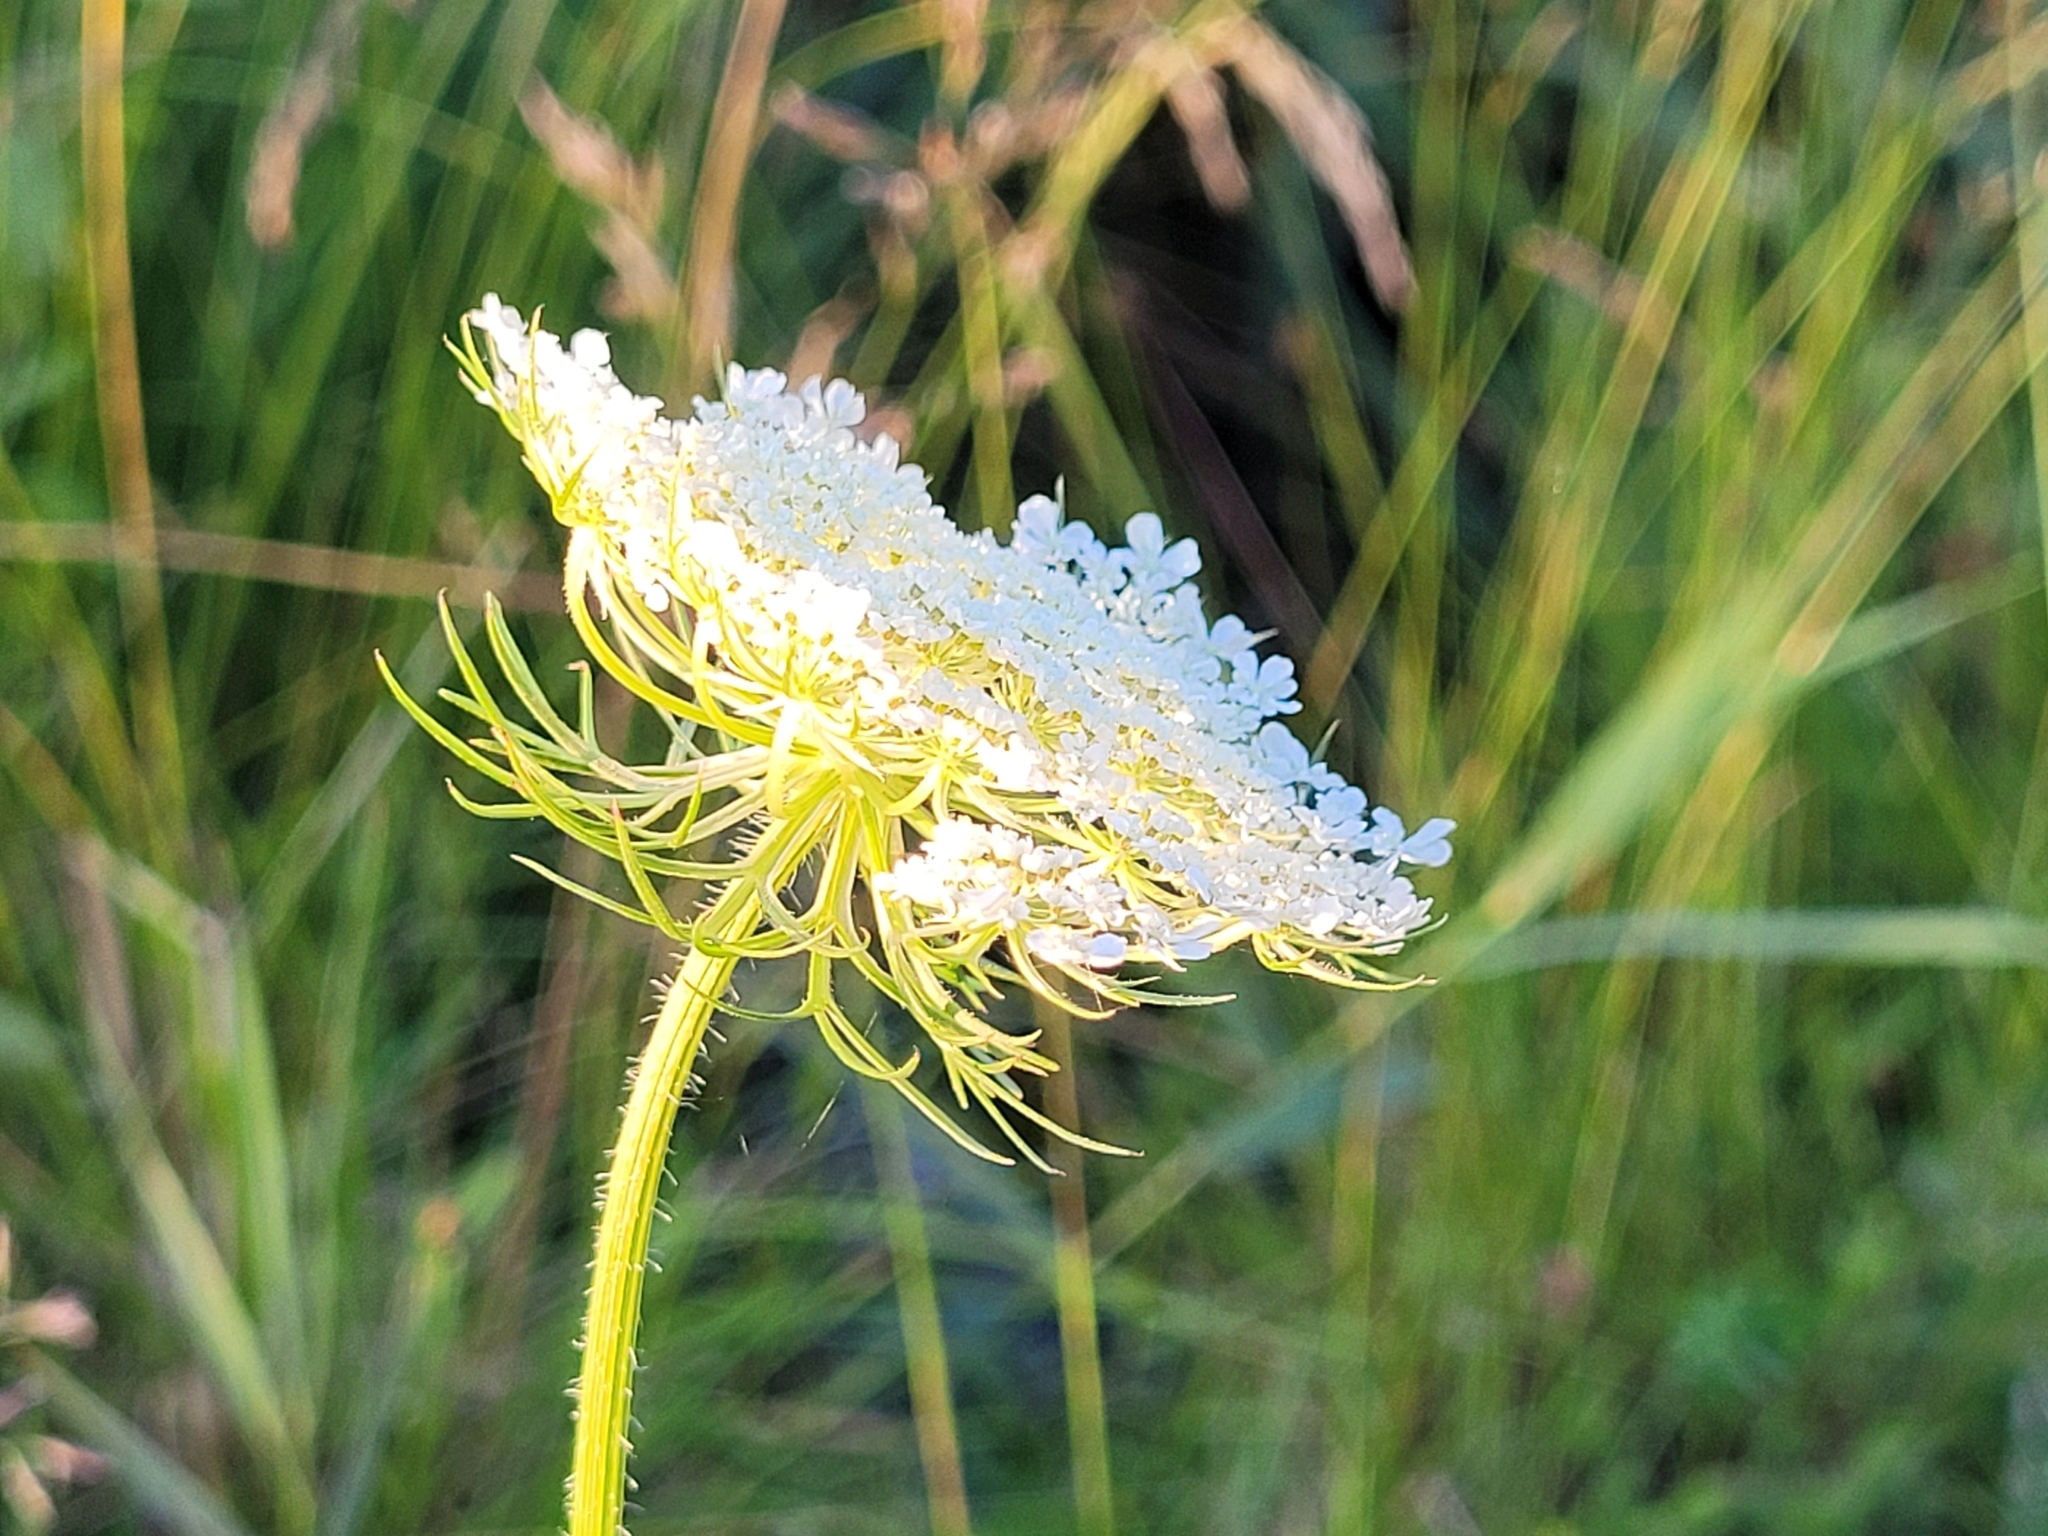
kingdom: Plantae
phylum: Tracheophyta
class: Magnoliopsida
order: Apiales
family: Apiaceae
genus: Daucus
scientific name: Daucus carota
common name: Wild carrot
